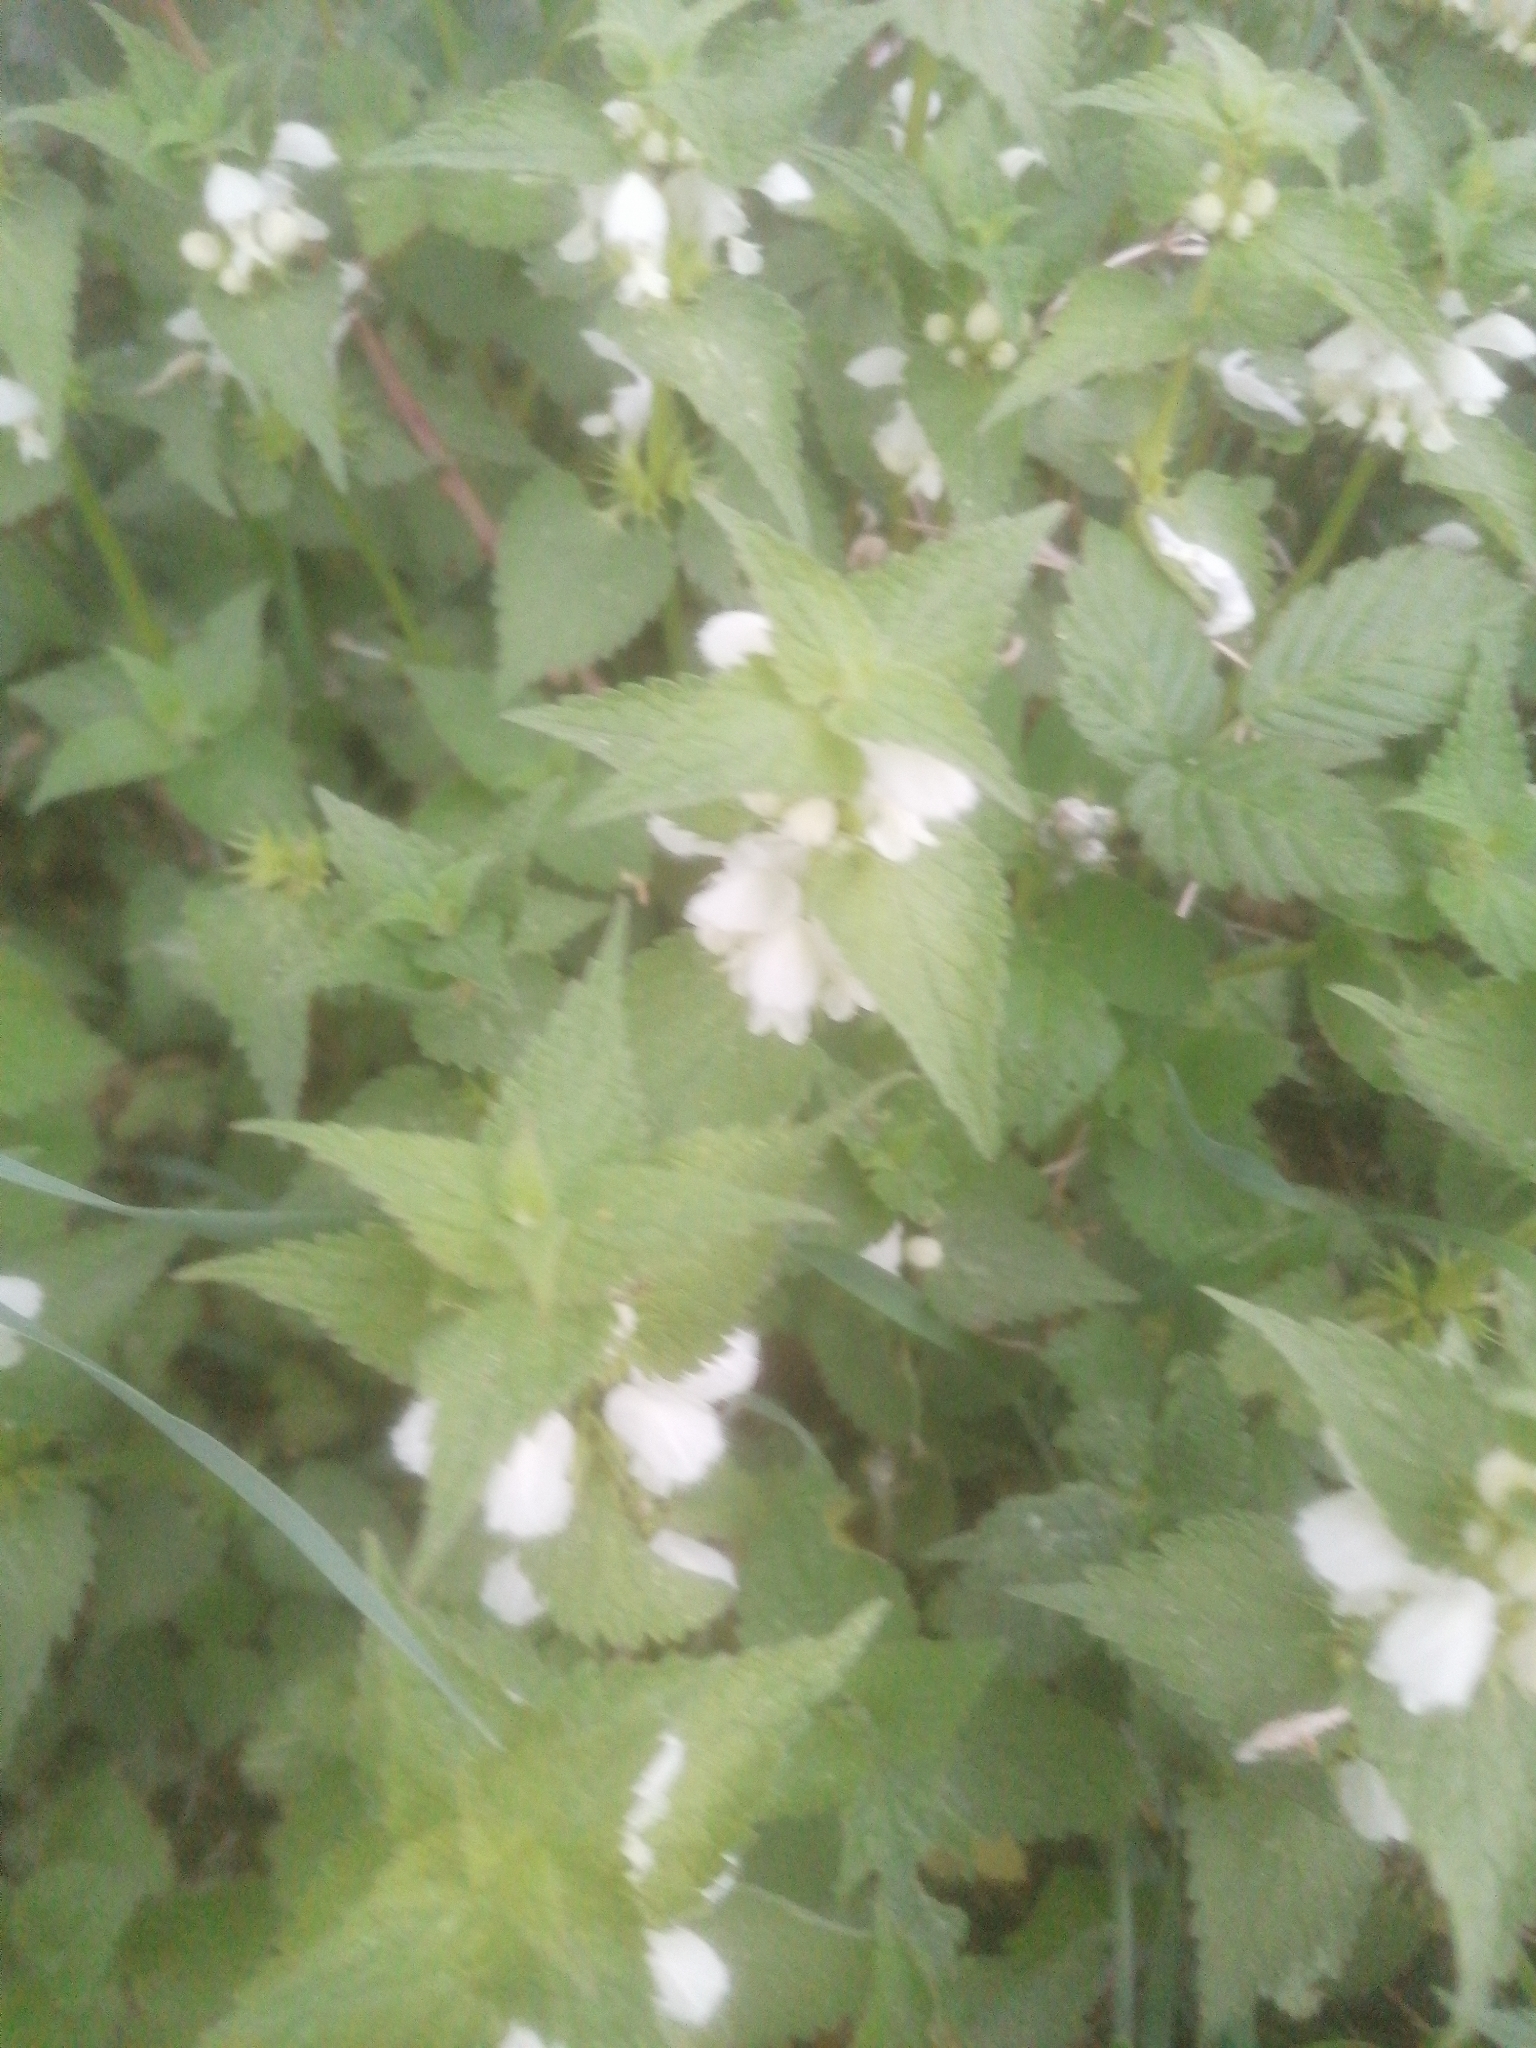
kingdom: Plantae
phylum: Tracheophyta
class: Magnoliopsida
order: Lamiales
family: Lamiaceae
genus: Lamium
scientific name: Lamium album
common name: White dead-nettle
